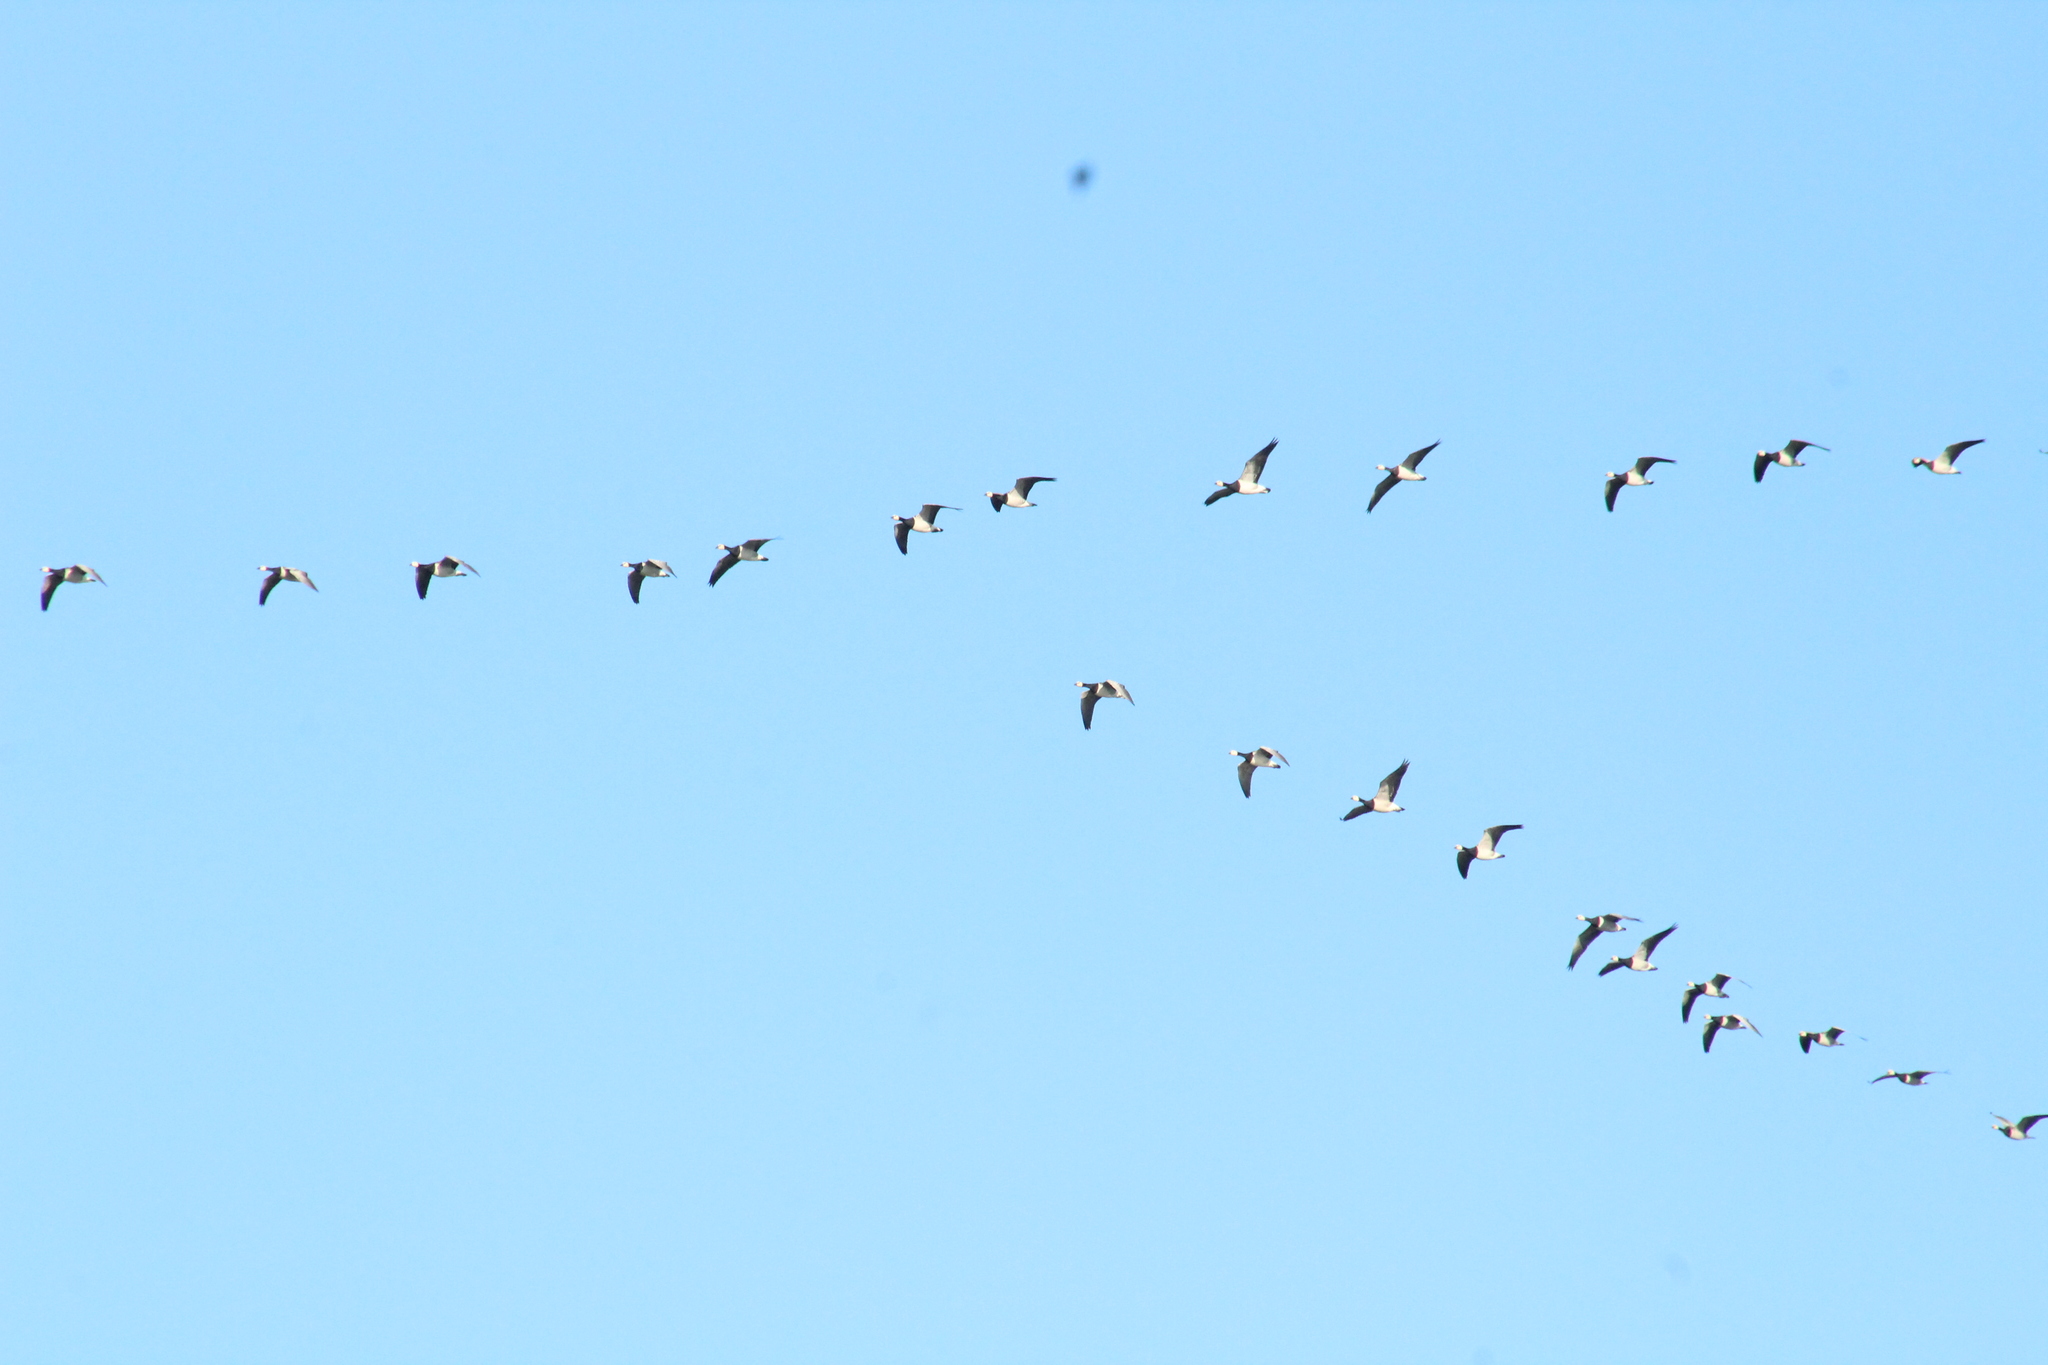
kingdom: Animalia
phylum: Chordata
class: Aves
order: Anseriformes
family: Anatidae
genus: Branta
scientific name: Branta leucopsis
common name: Barnacle goose
